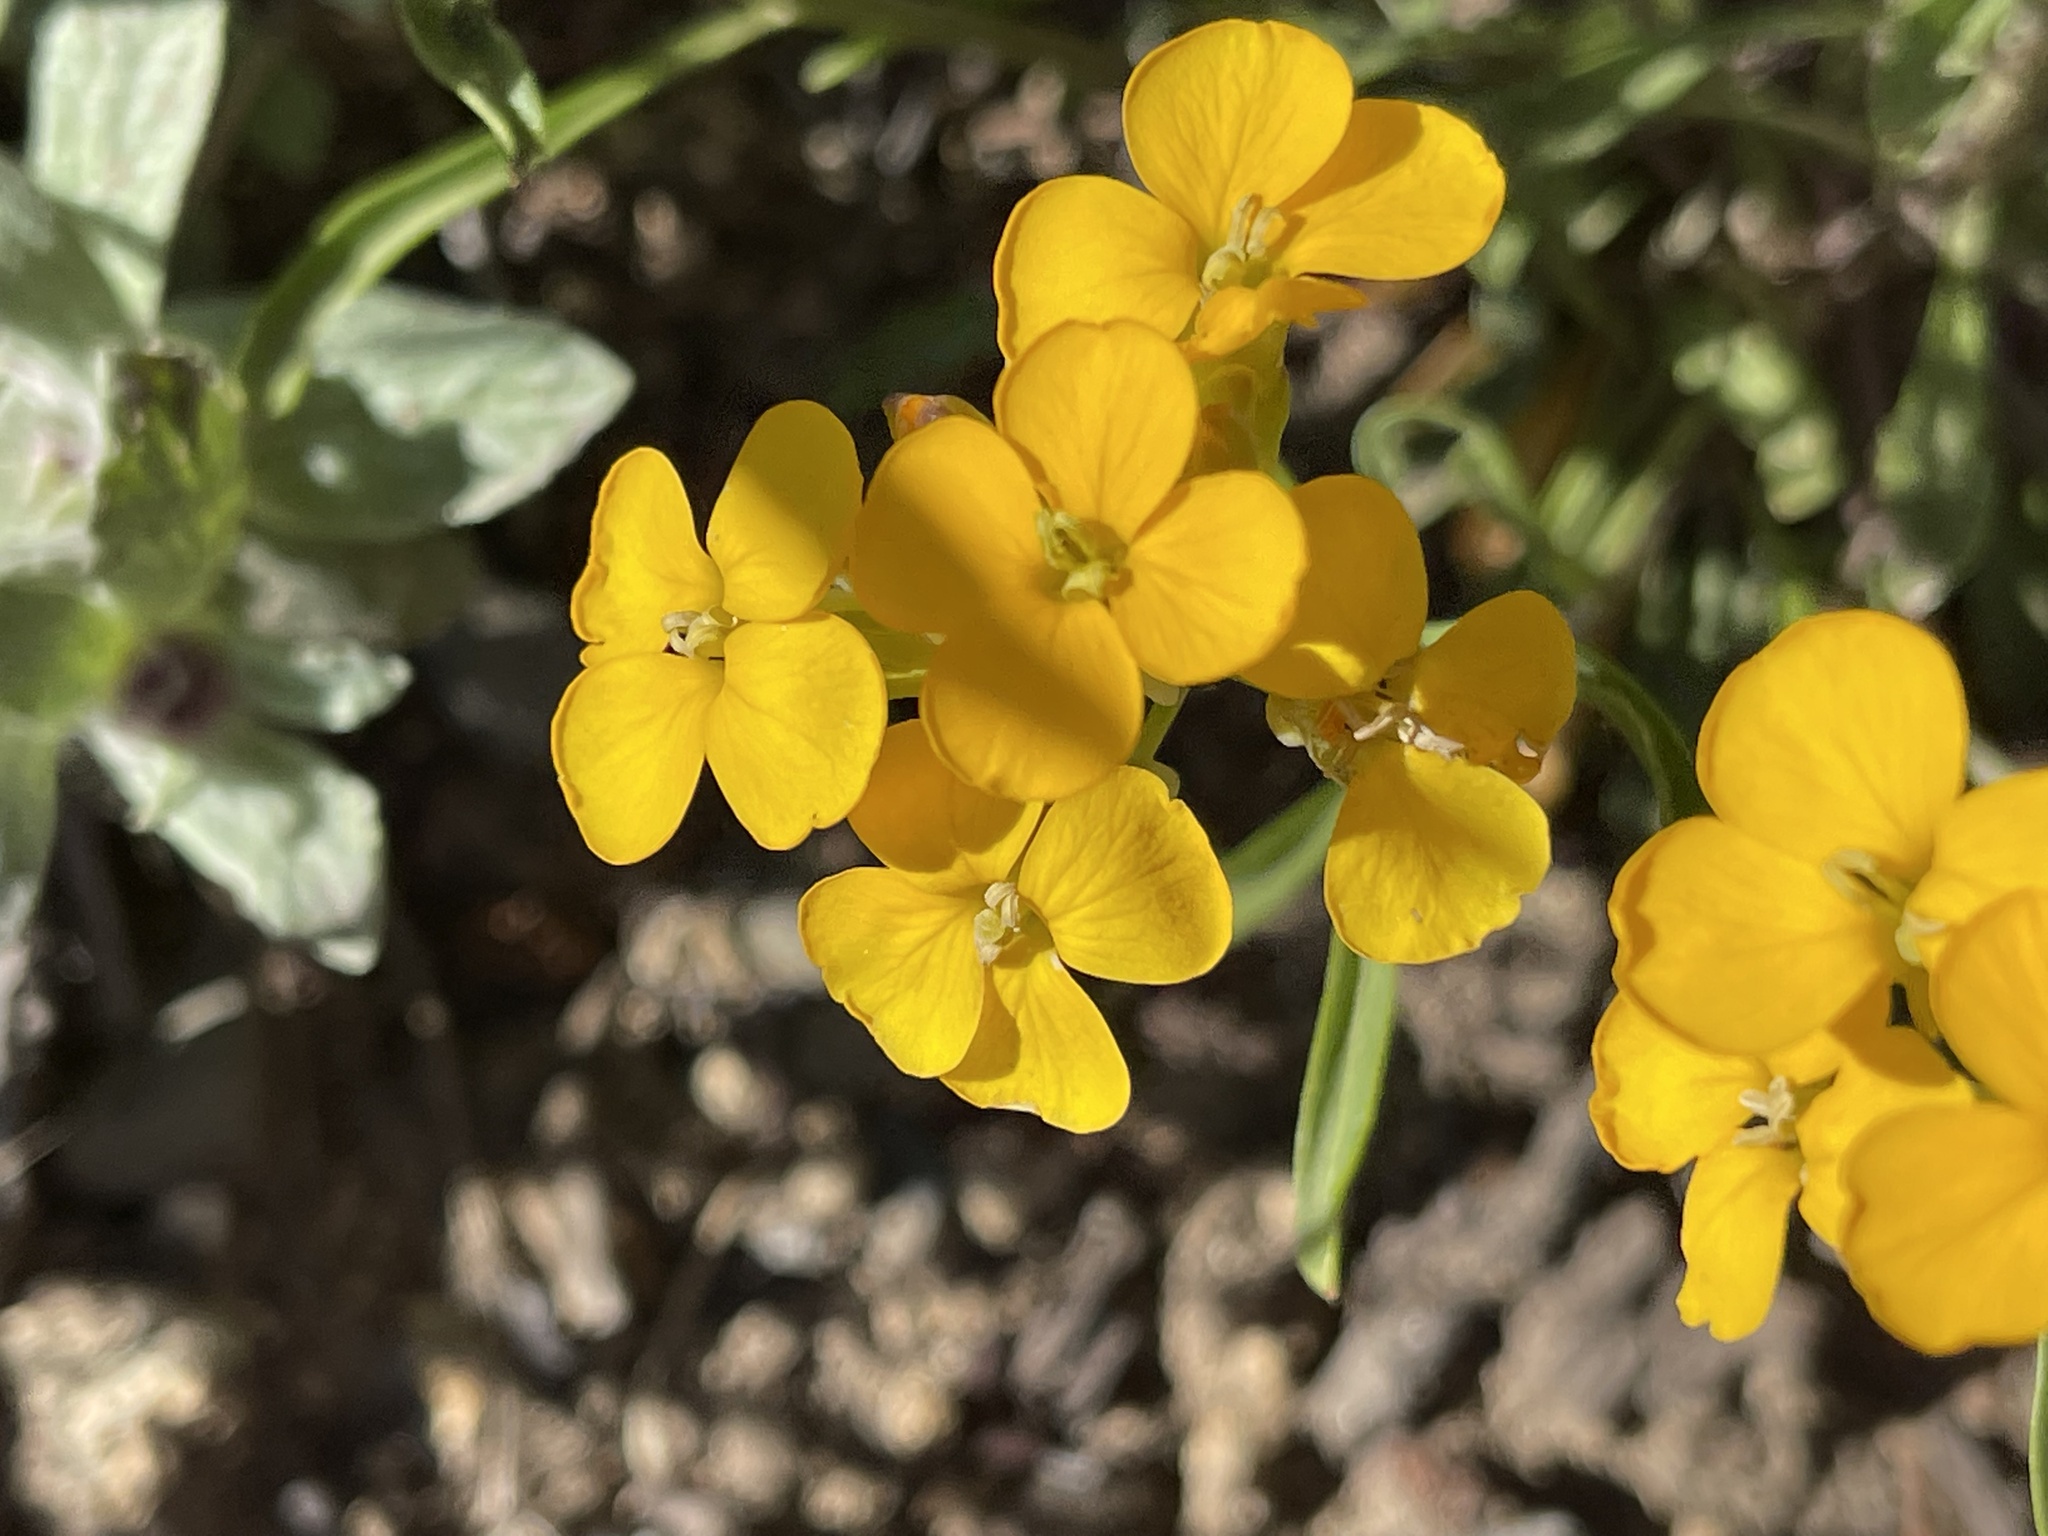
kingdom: Plantae
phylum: Tracheophyta
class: Magnoliopsida
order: Brassicales
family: Brassicaceae
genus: Erysimum
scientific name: Erysimum capitatum
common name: Western wallflower
